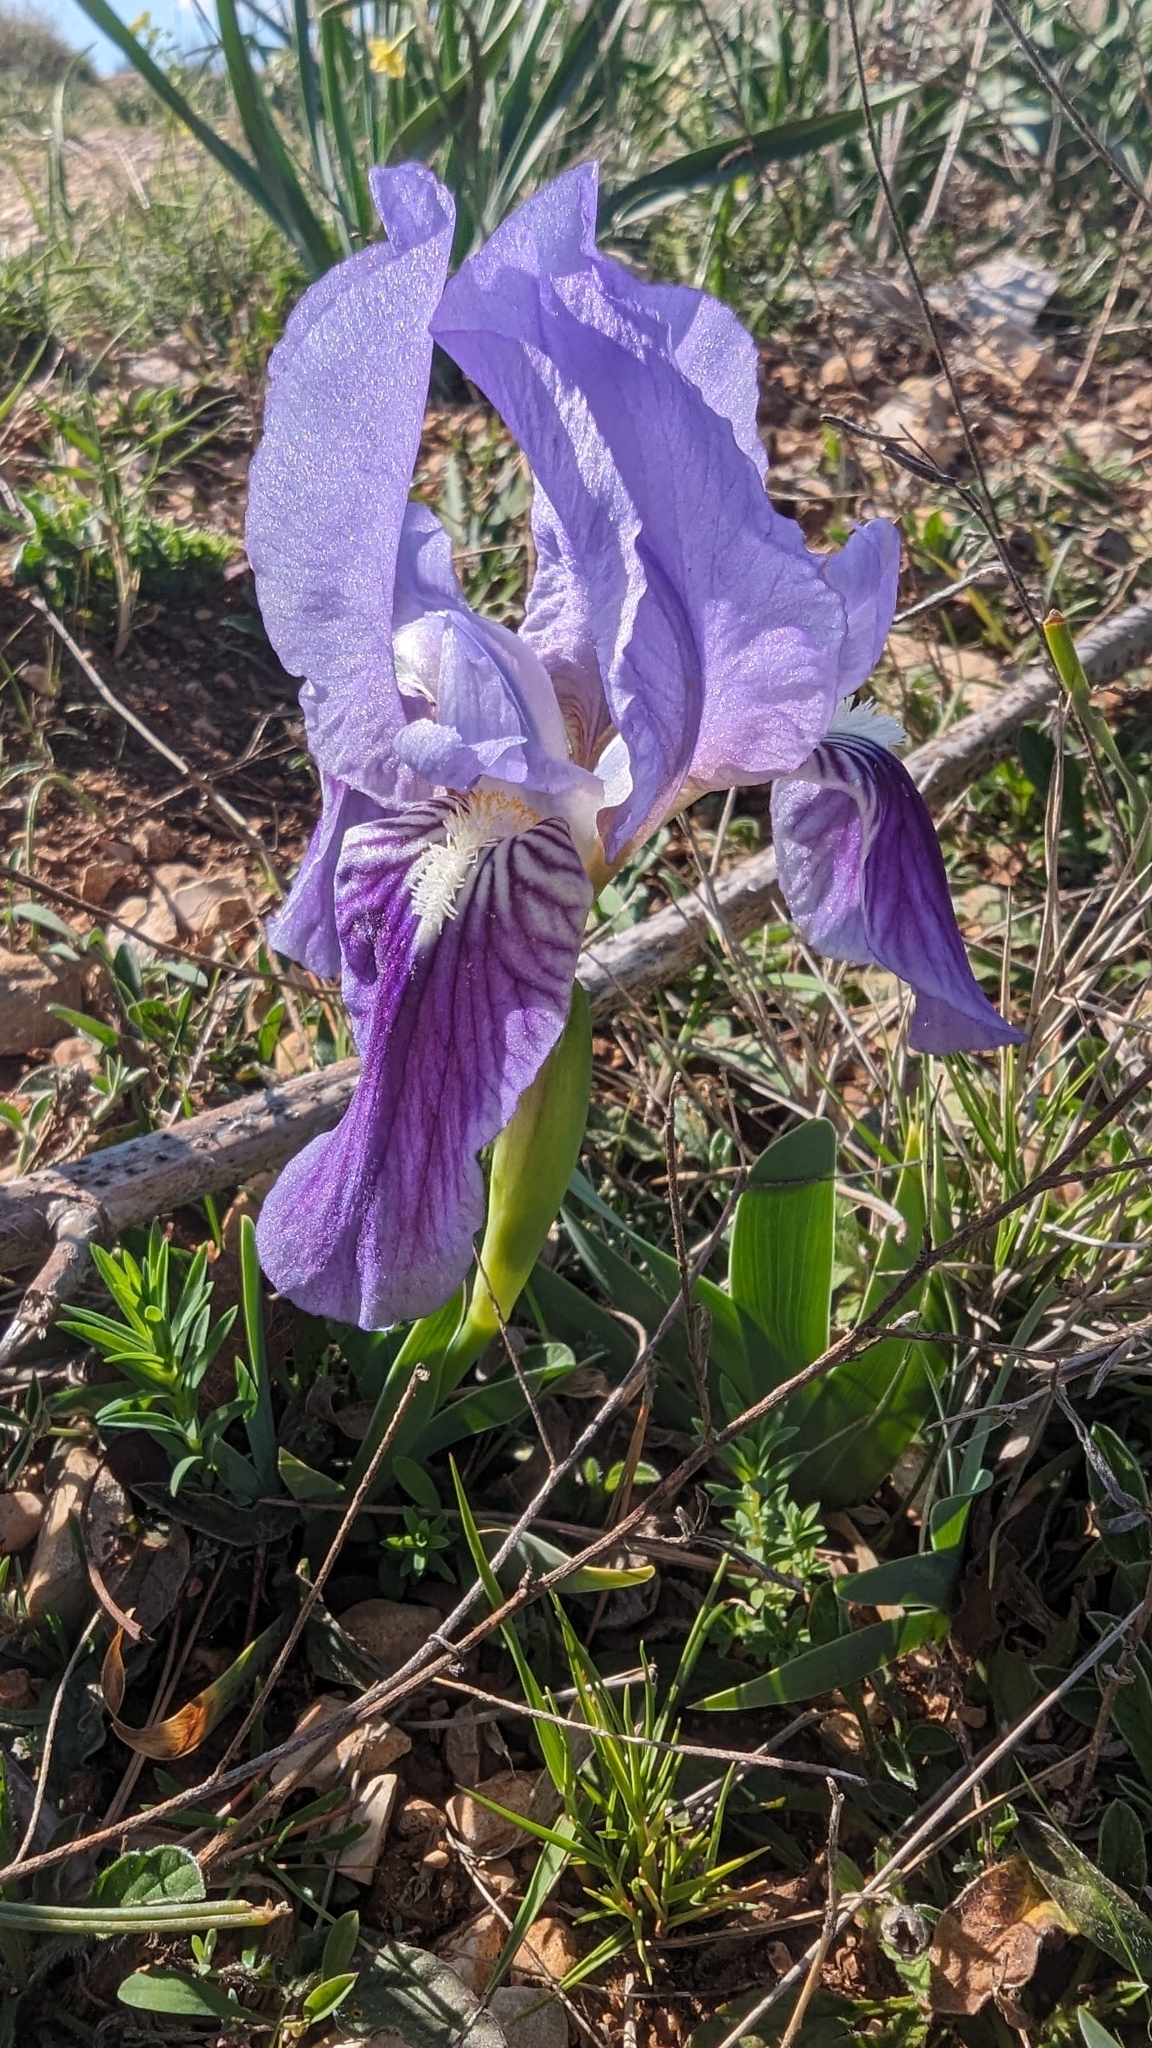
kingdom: Plantae
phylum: Tracheophyta
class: Liliopsida
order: Asparagales
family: Iridaceae
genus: Iris
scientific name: Iris lutescens
